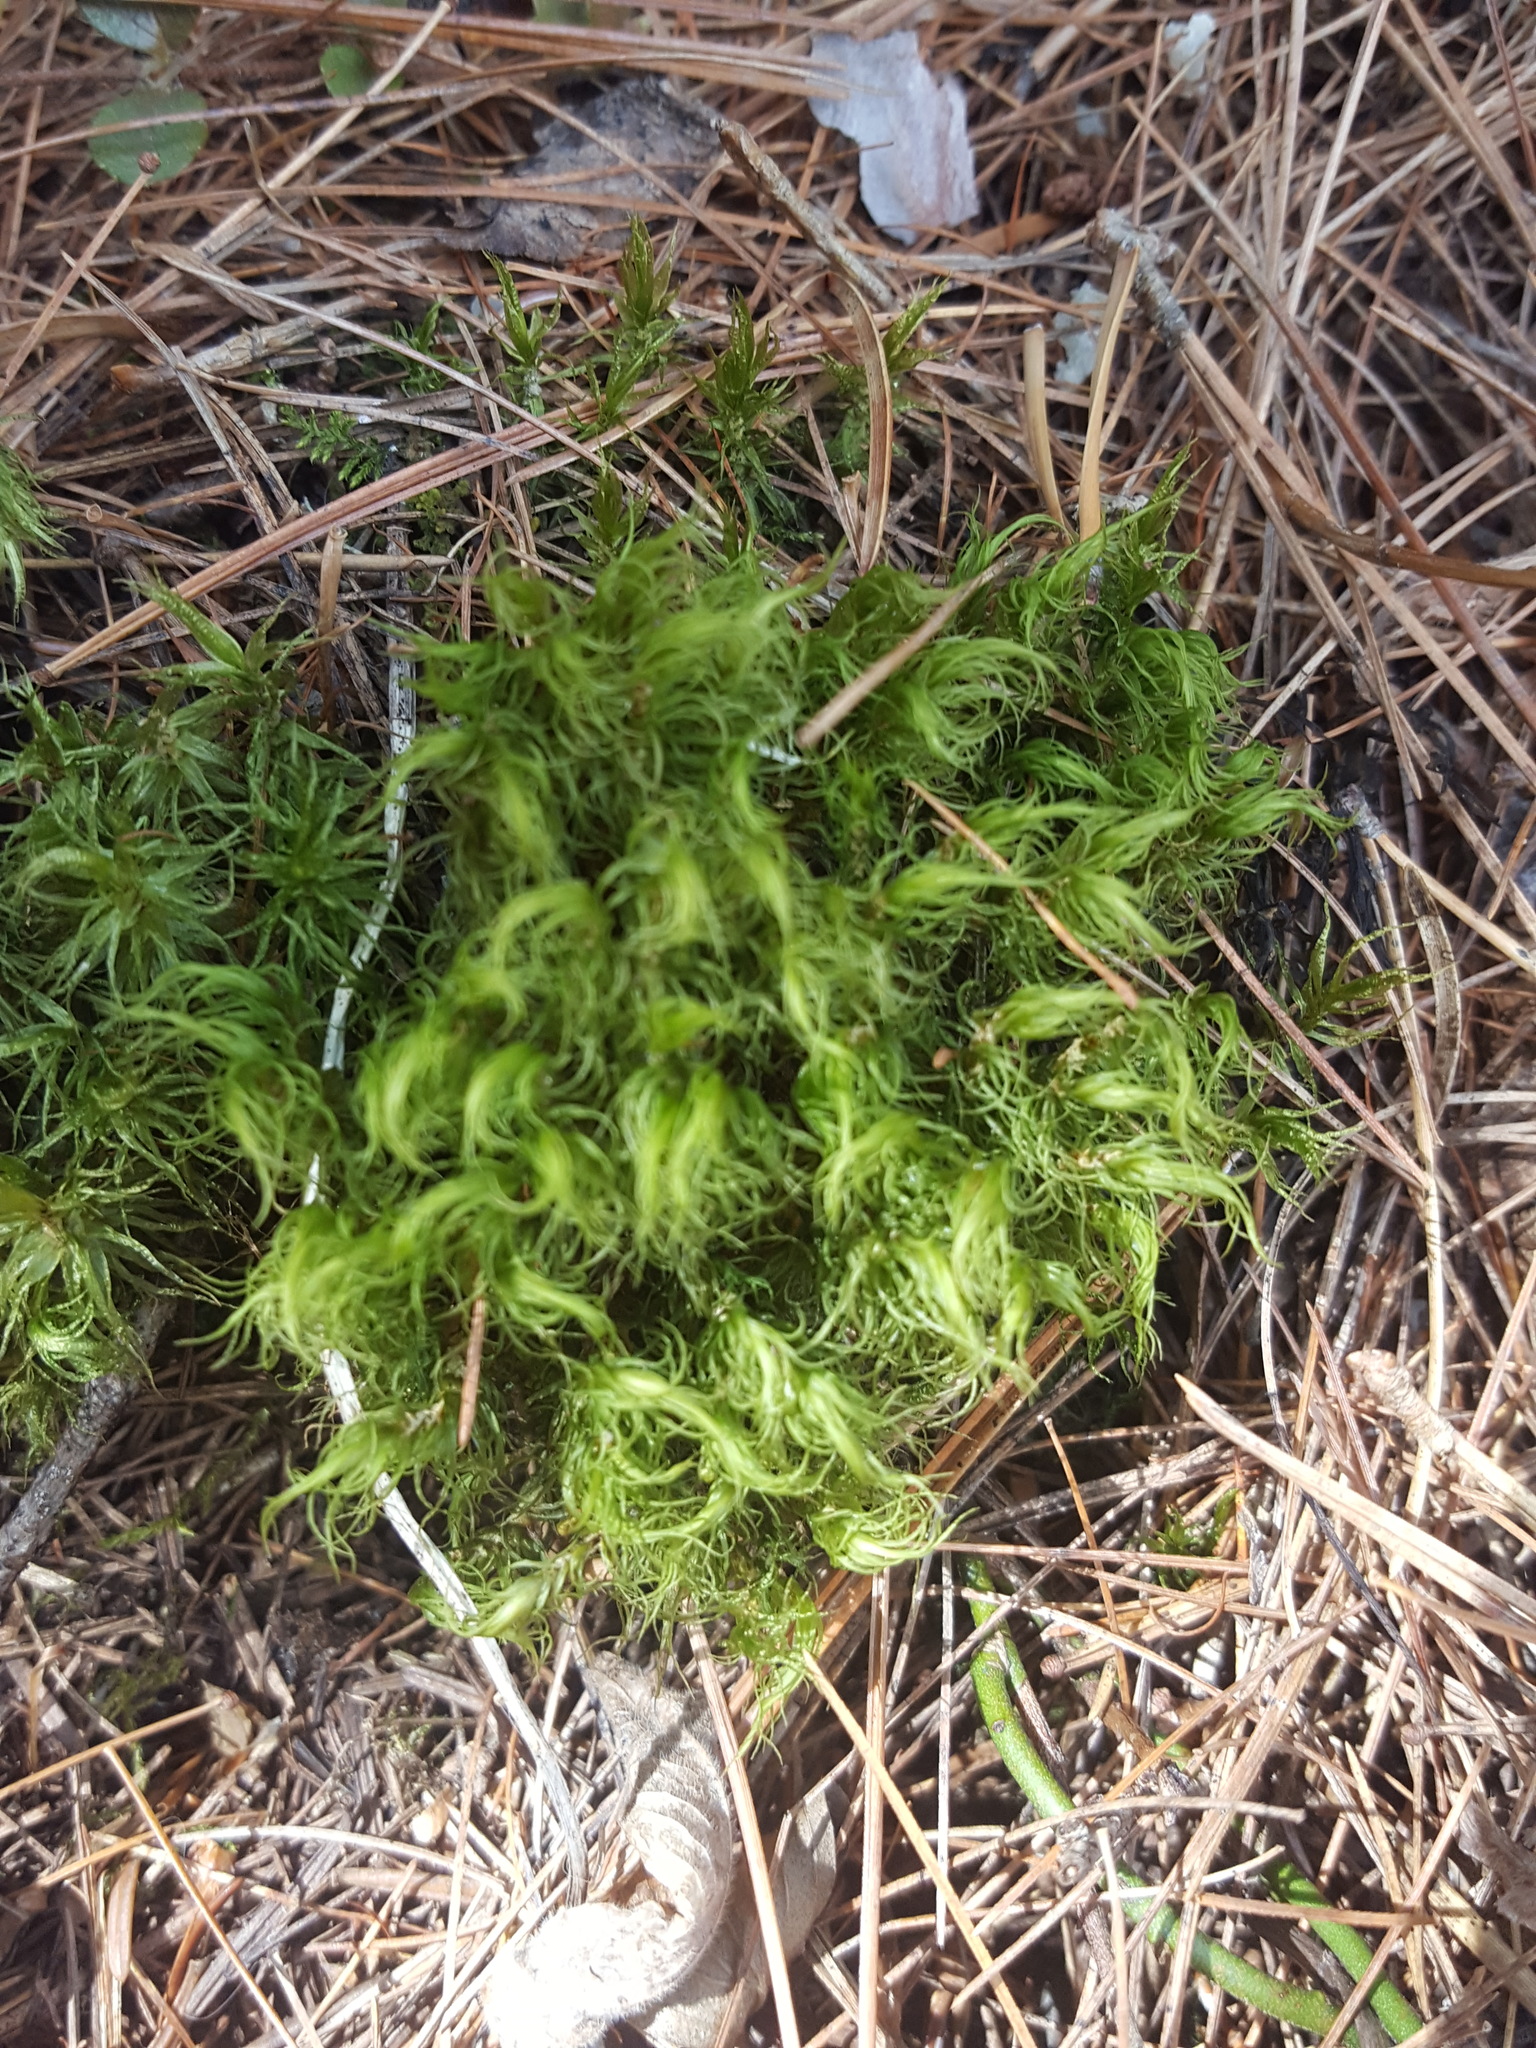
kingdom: Plantae
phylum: Bryophyta
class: Bryopsida
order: Dicranales
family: Dicranaceae
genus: Dicranum
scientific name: Dicranum scoparium
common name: Broom fork-moss
